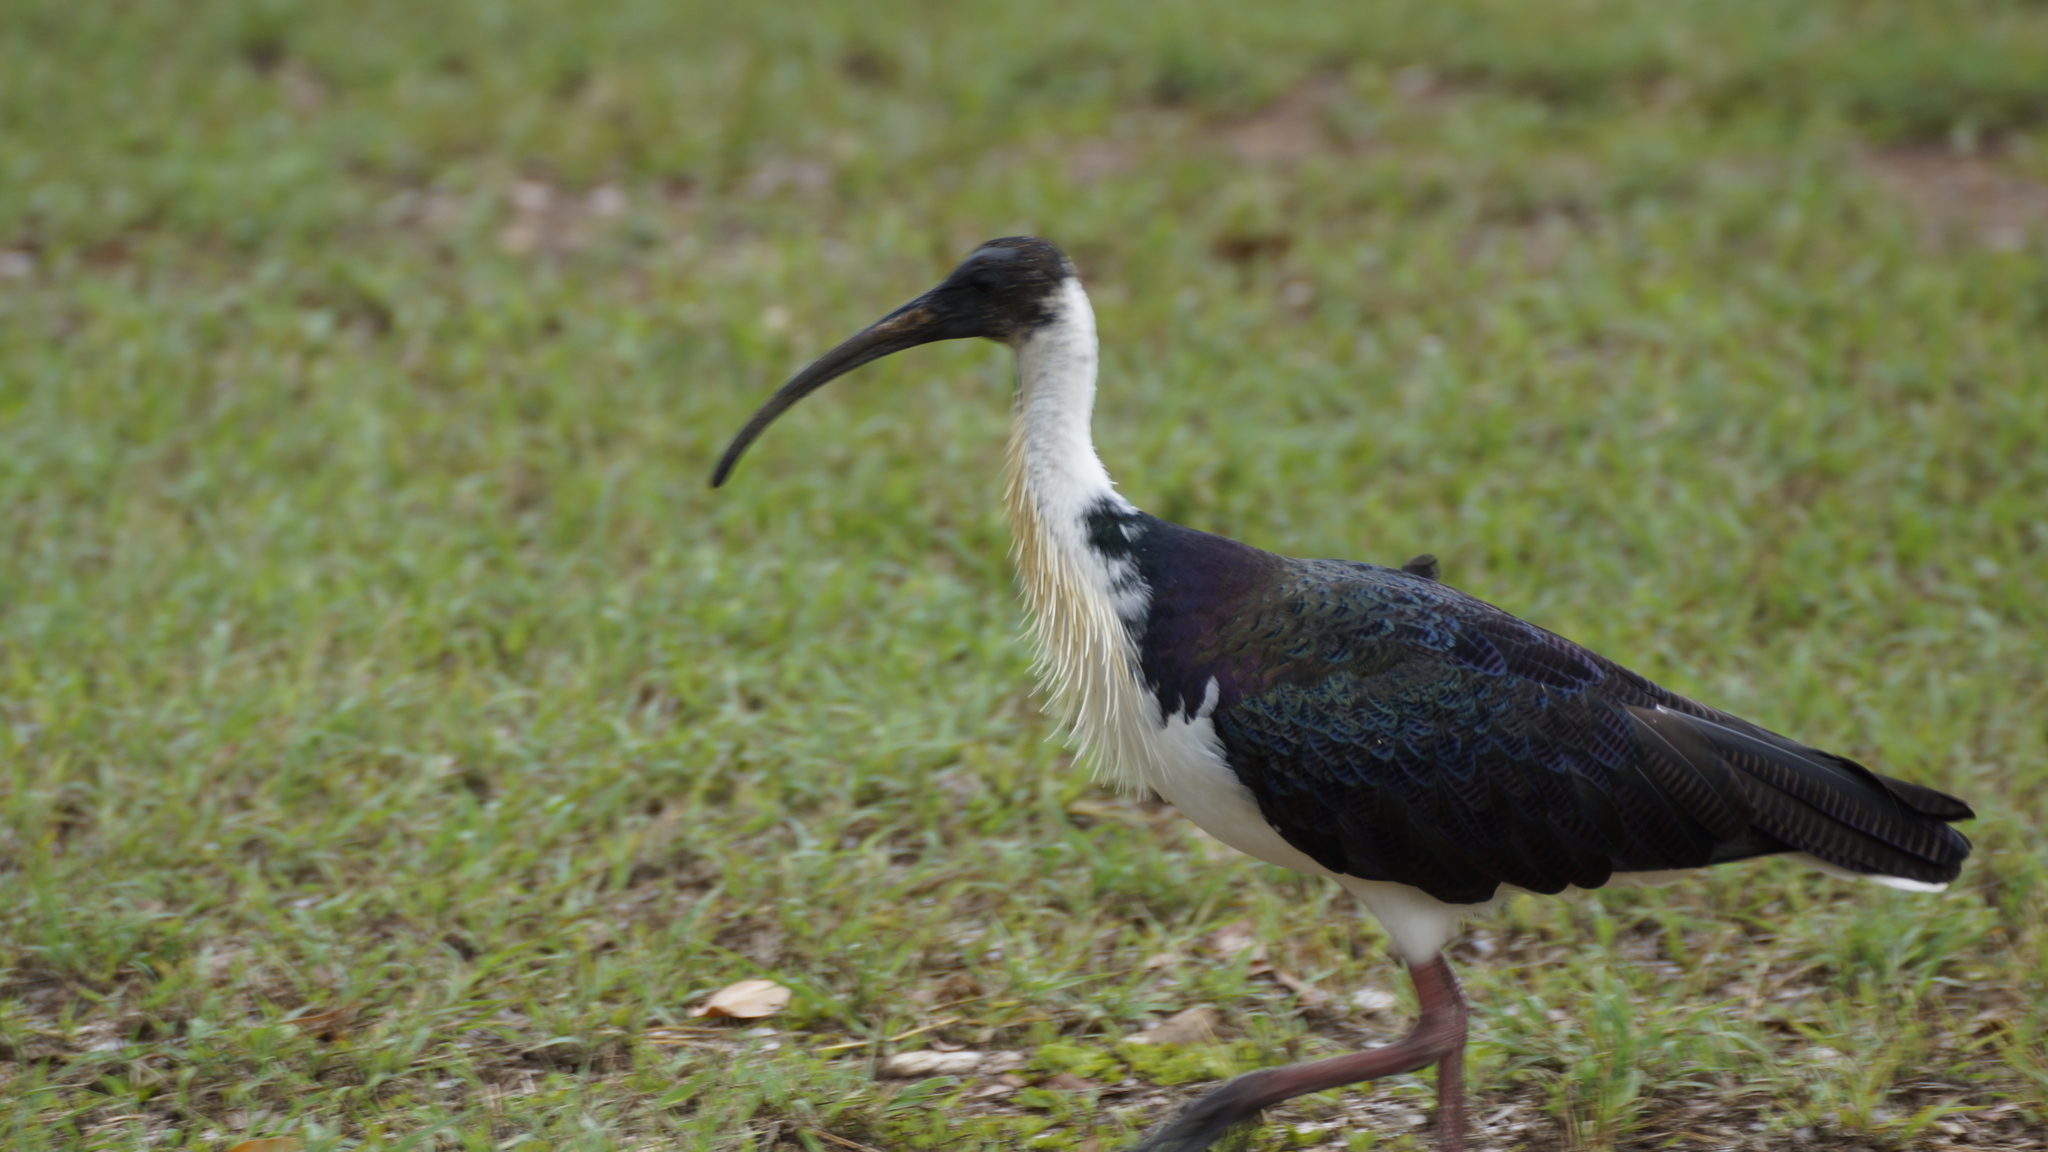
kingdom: Animalia
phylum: Chordata
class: Aves
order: Pelecaniformes
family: Threskiornithidae
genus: Threskiornis
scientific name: Threskiornis spinicollis
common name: Straw-necked ibis
